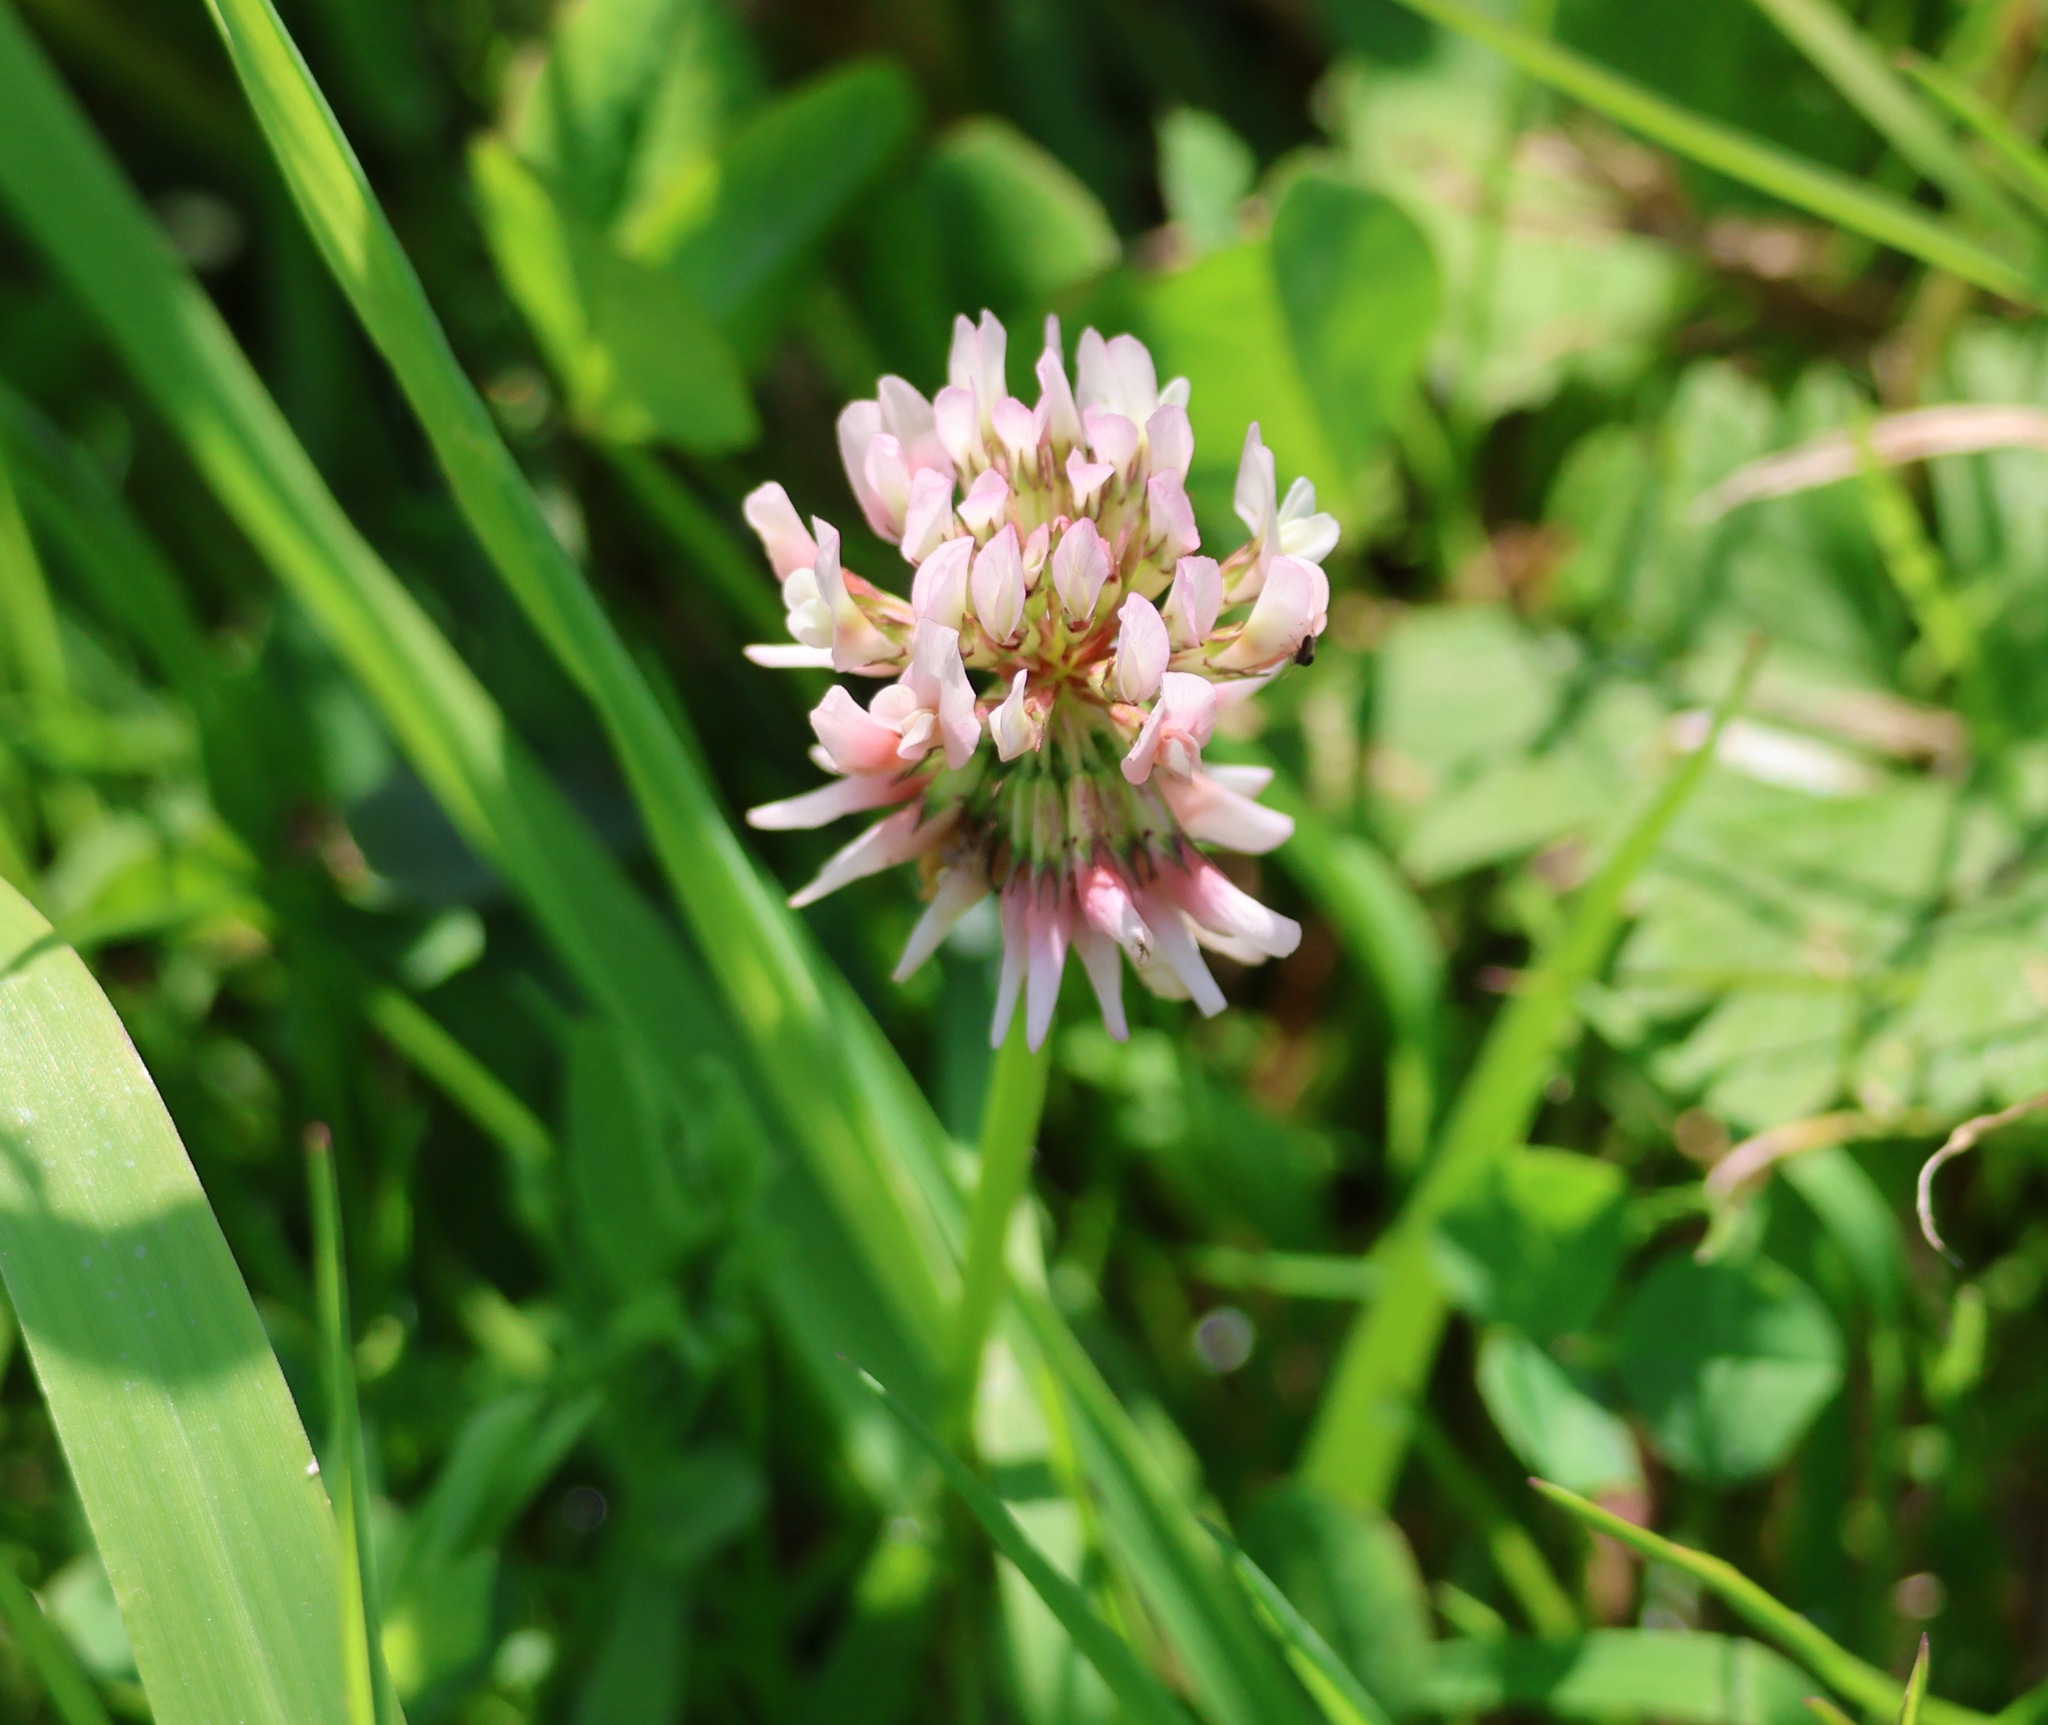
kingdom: Plantae
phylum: Tracheophyta
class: Magnoliopsida
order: Fabales
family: Fabaceae
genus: Trifolium
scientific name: Trifolium repens
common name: White clover
